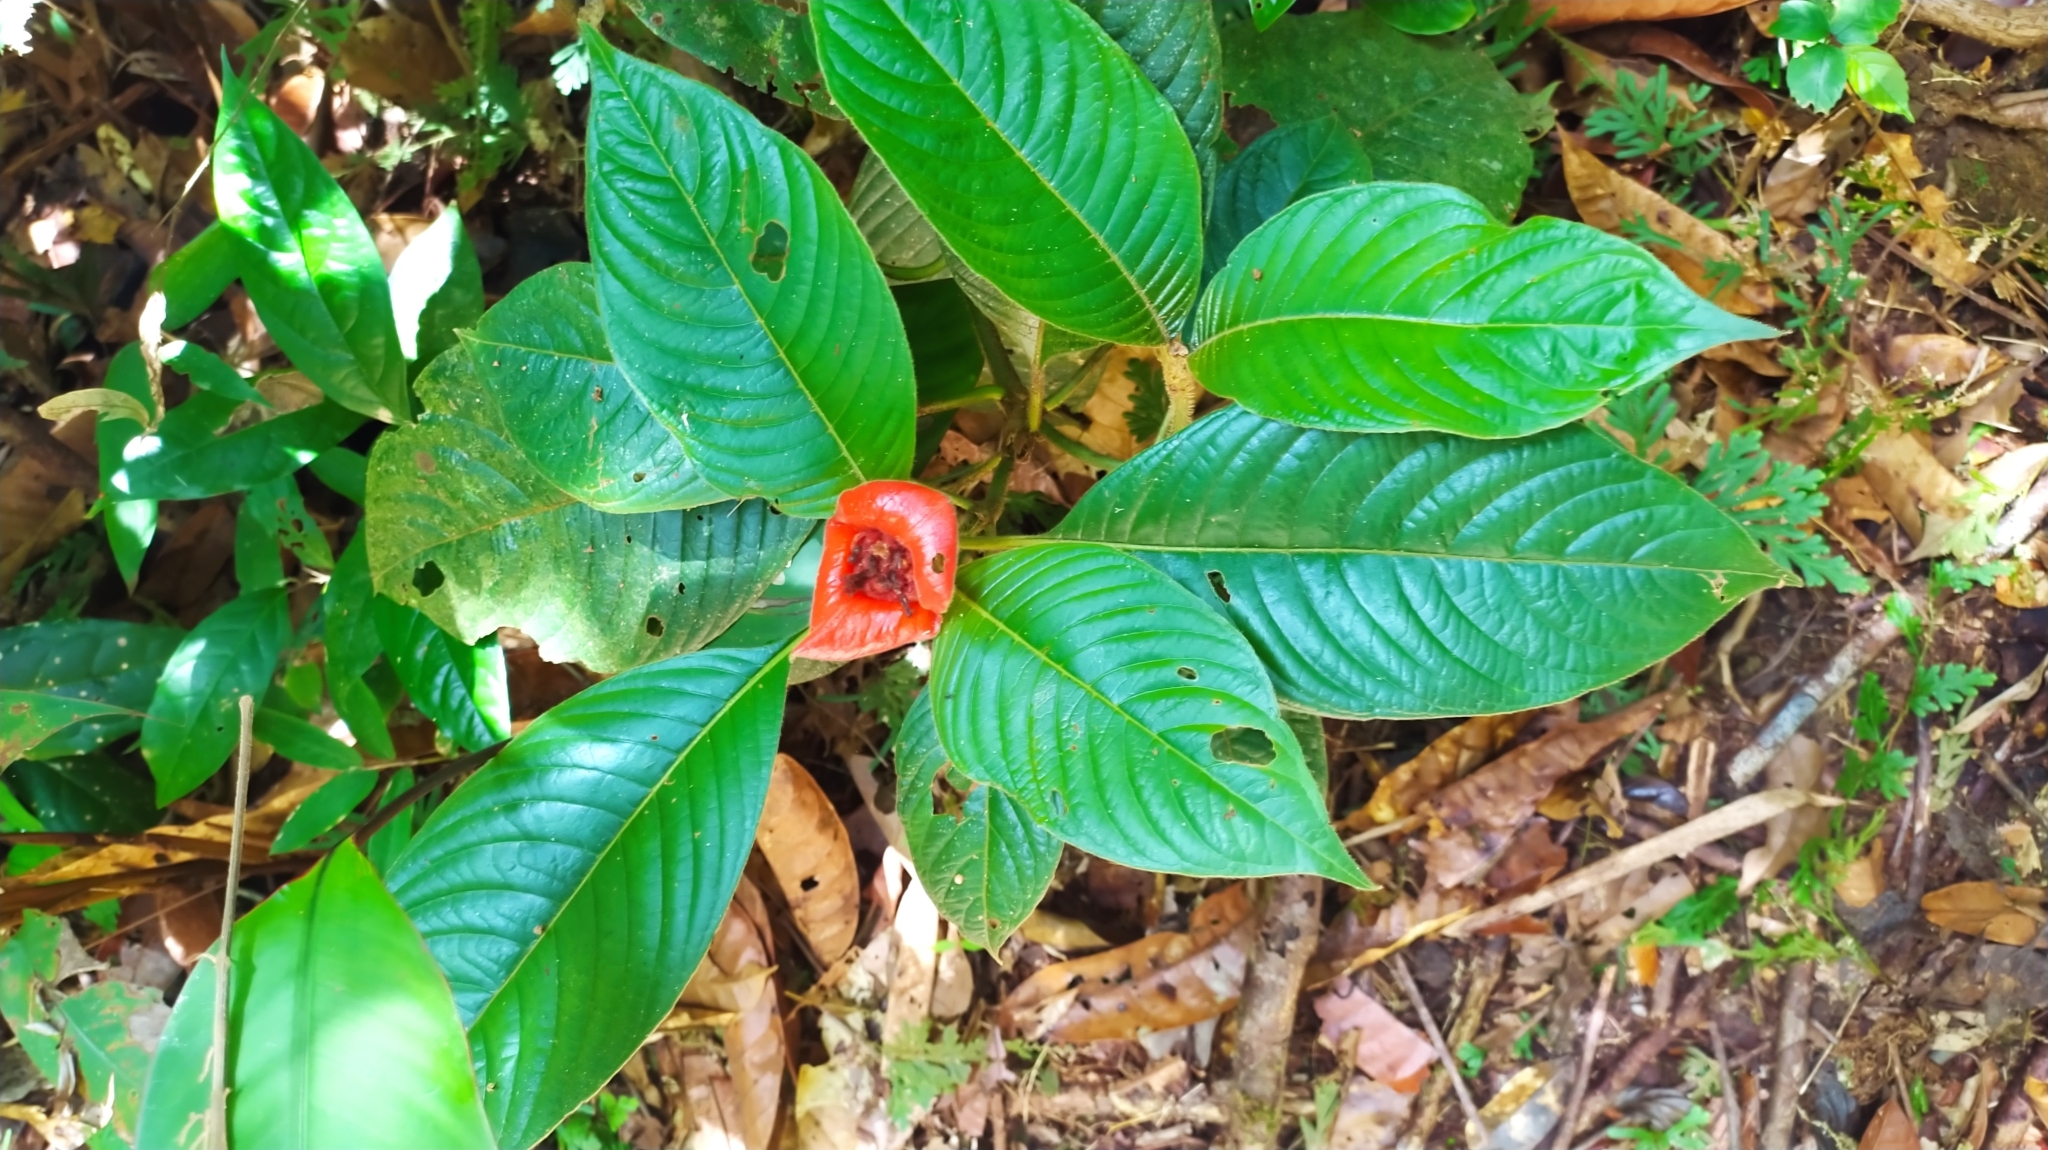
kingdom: Plantae
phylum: Tracheophyta
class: Magnoliopsida
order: Gentianales
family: Rubiaceae
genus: Palicourea
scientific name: Palicourea tomentosa
